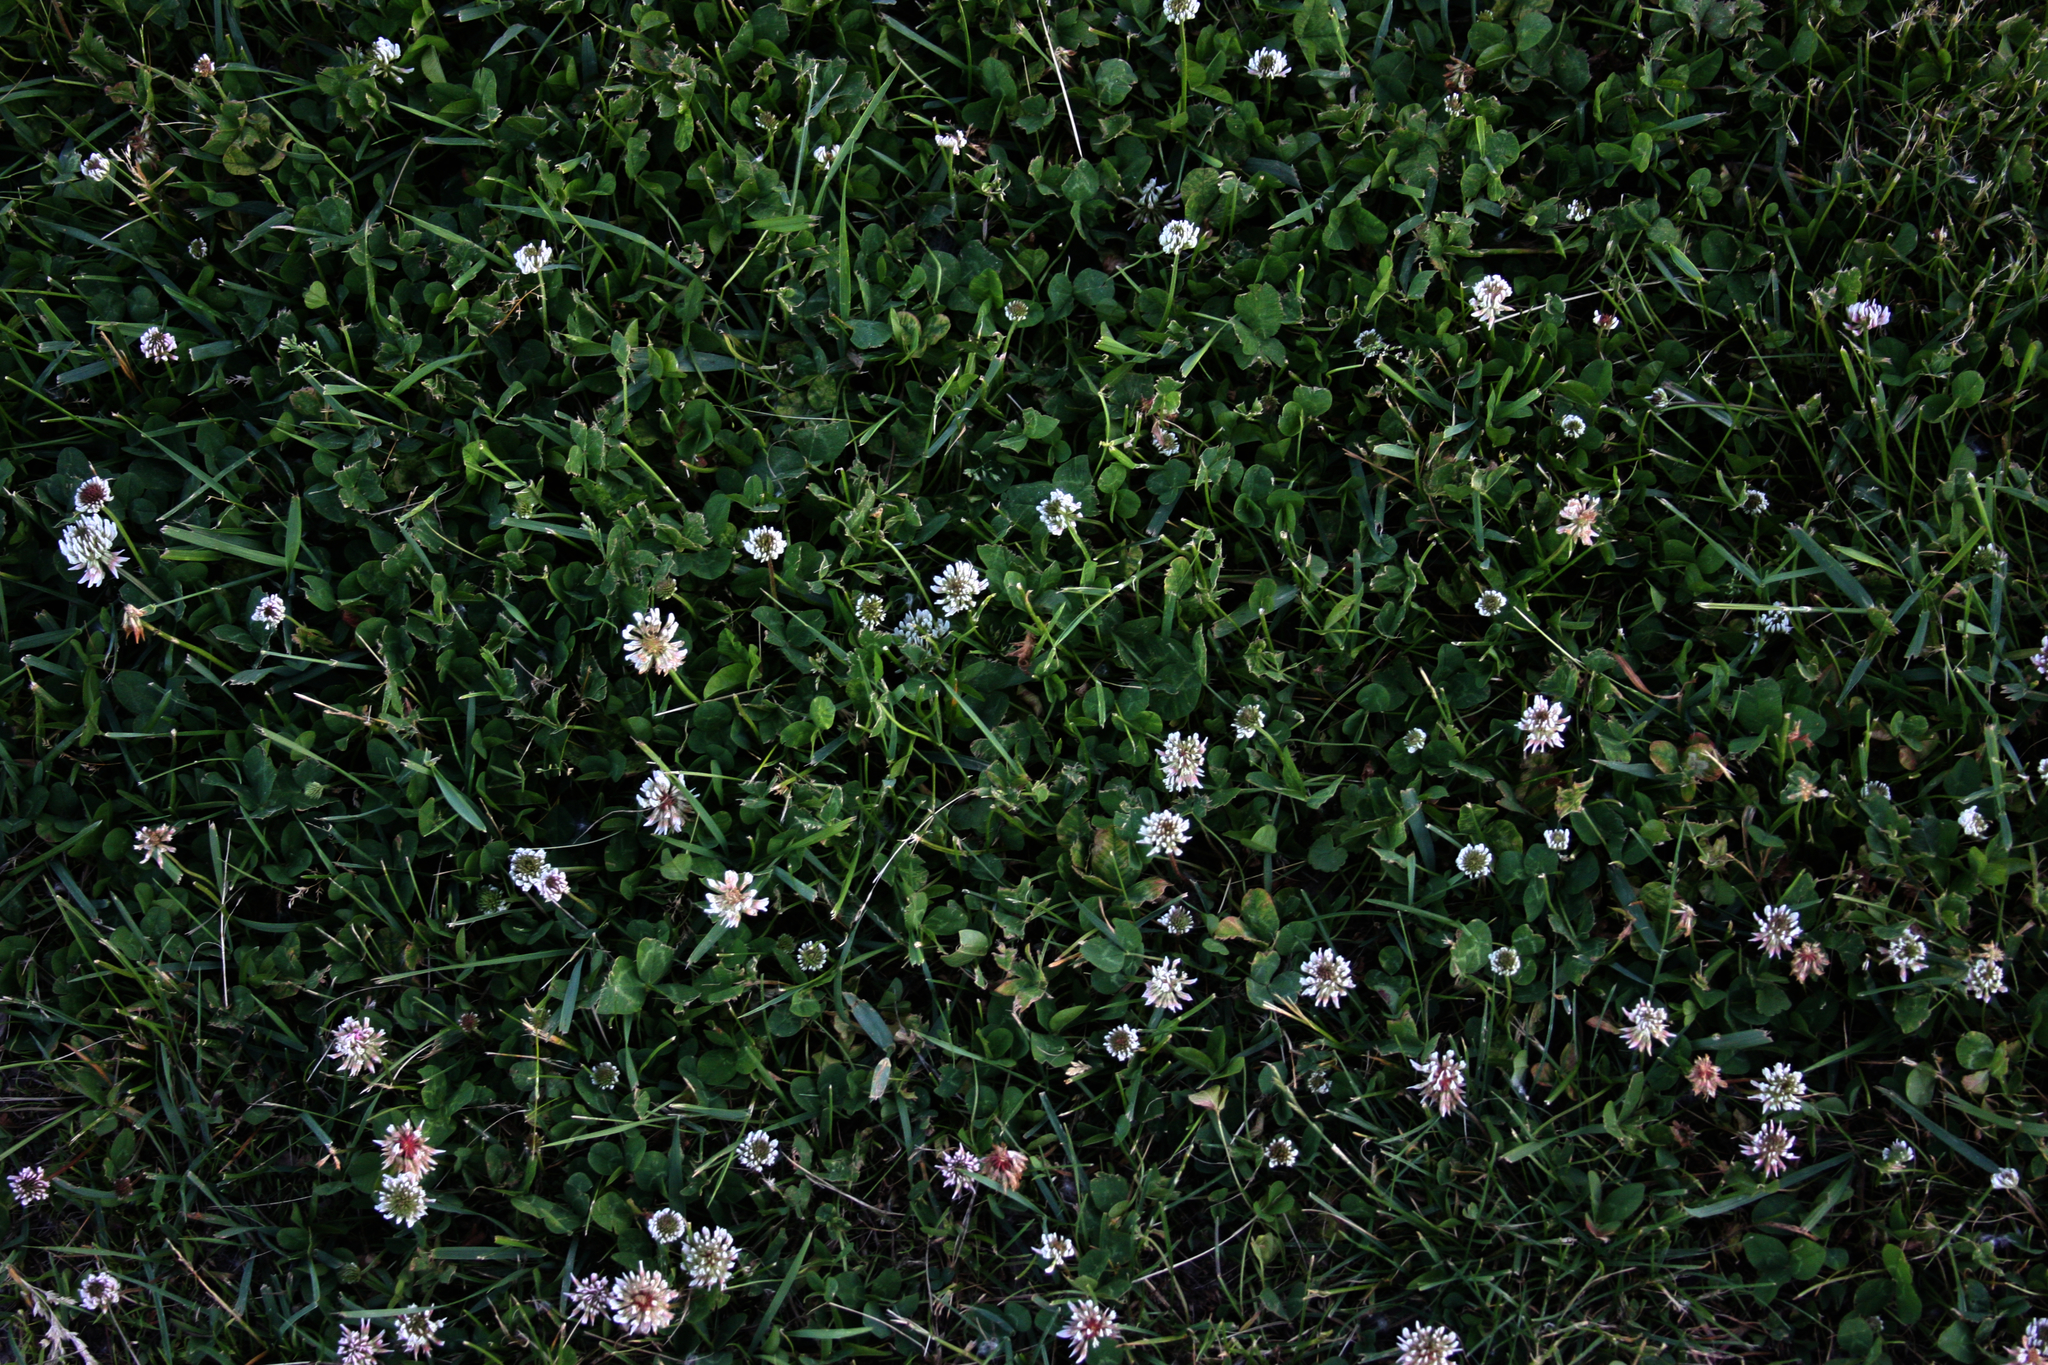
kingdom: Plantae
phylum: Tracheophyta
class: Magnoliopsida
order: Fabales
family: Fabaceae
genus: Trifolium
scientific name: Trifolium repens
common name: White clover
